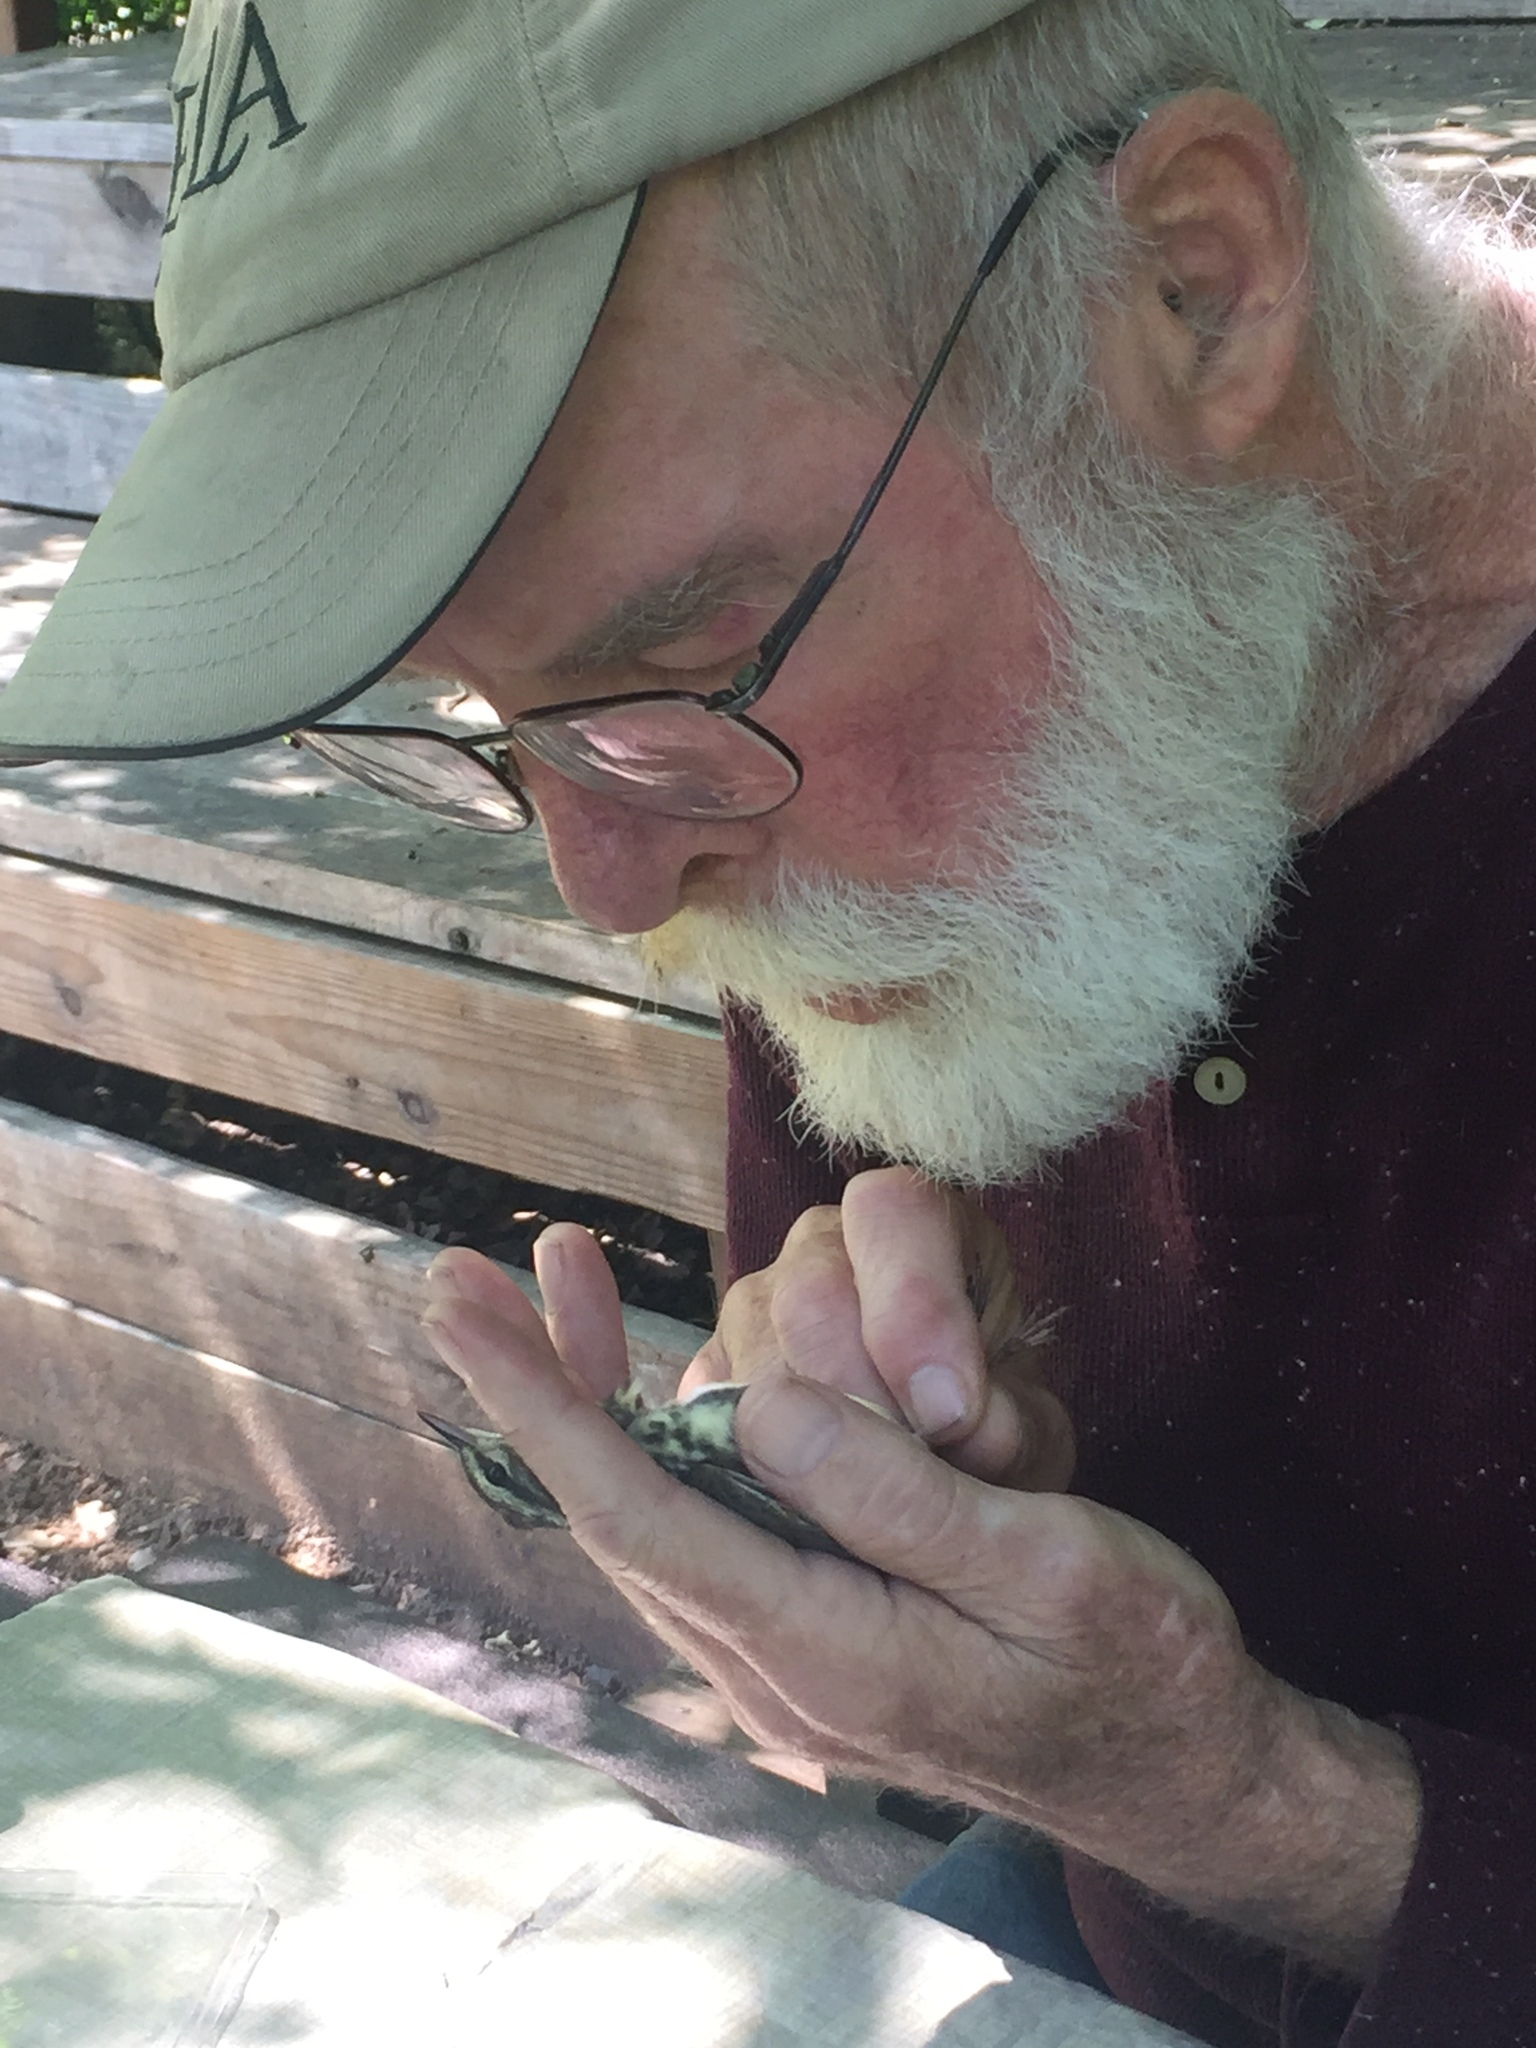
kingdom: Animalia
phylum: Chordata
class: Aves
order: Passeriformes
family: Parulidae
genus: Parkesia
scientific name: Parkesia noveboracensis
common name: Northern waterthrush
